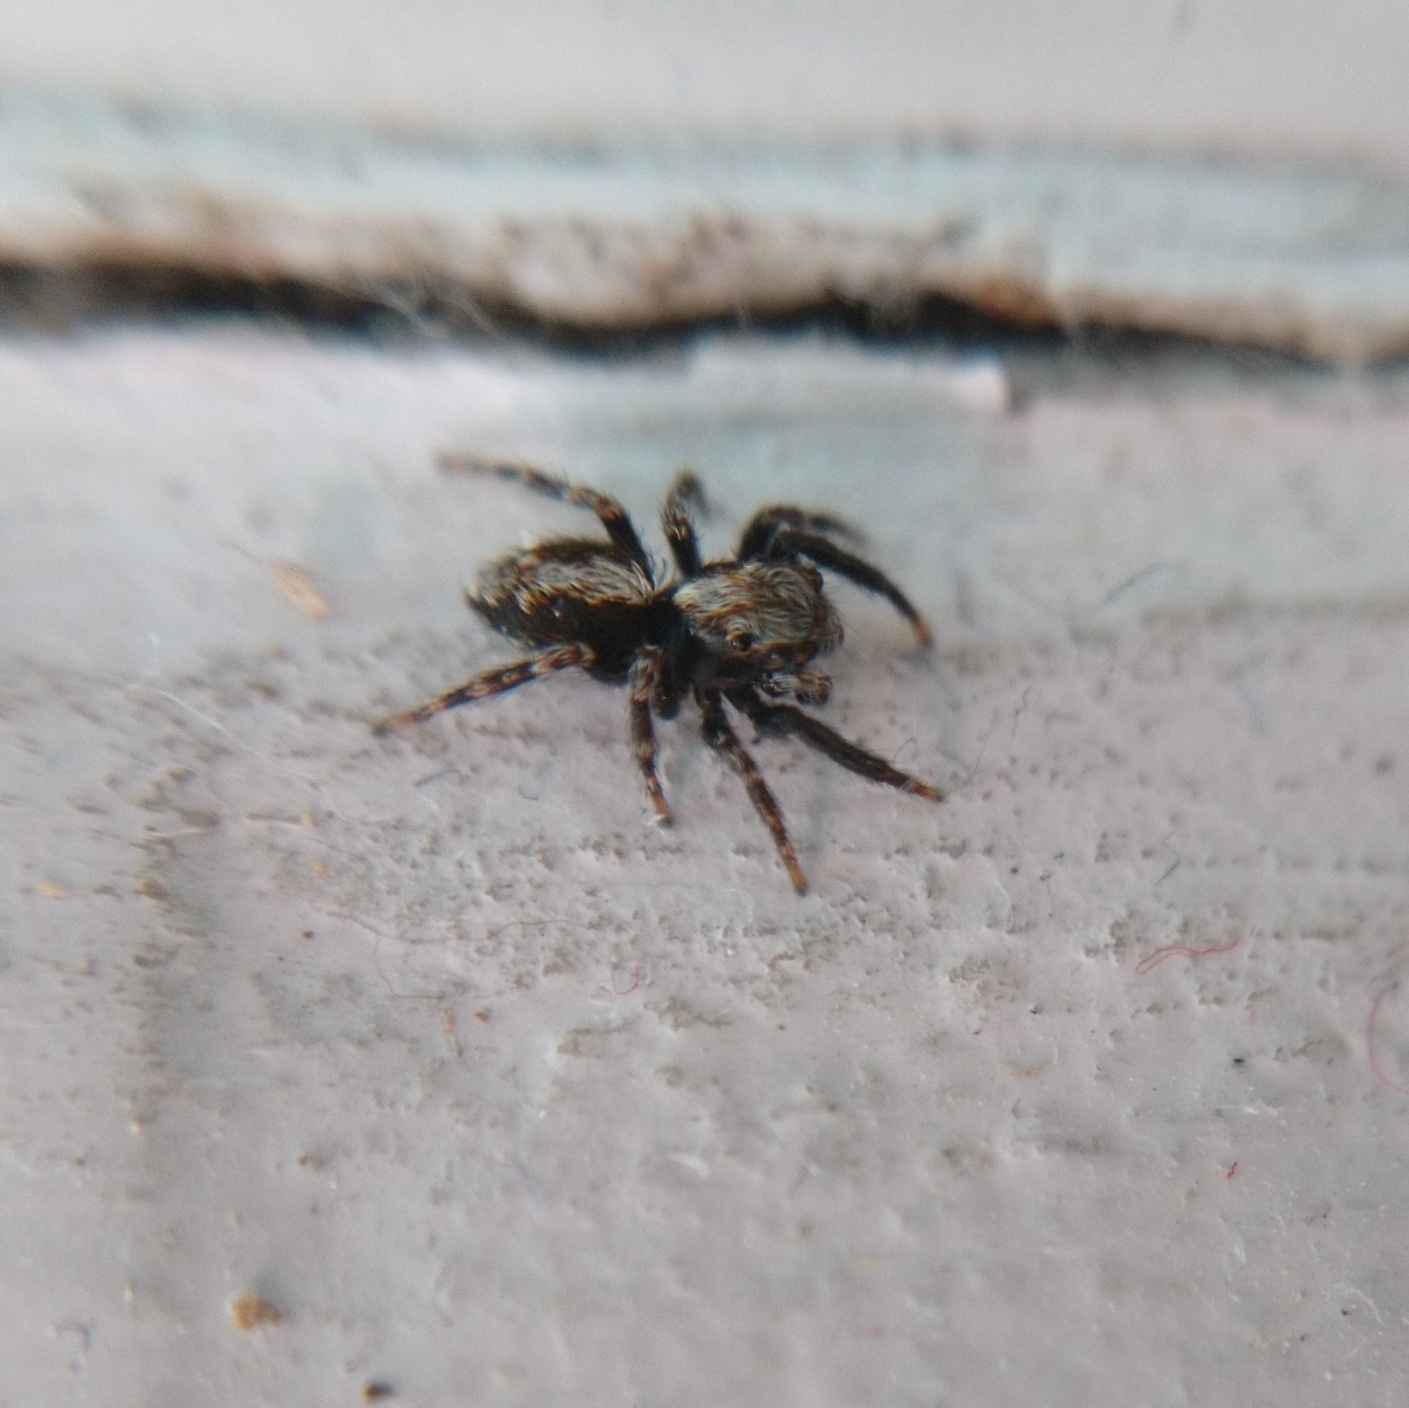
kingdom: Animalia
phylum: Arthropoda
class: Arachnida
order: Araneae
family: Salticidae
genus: Pseudeuophrys
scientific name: Pseudeuophrys lanigera
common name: Jumping spider
